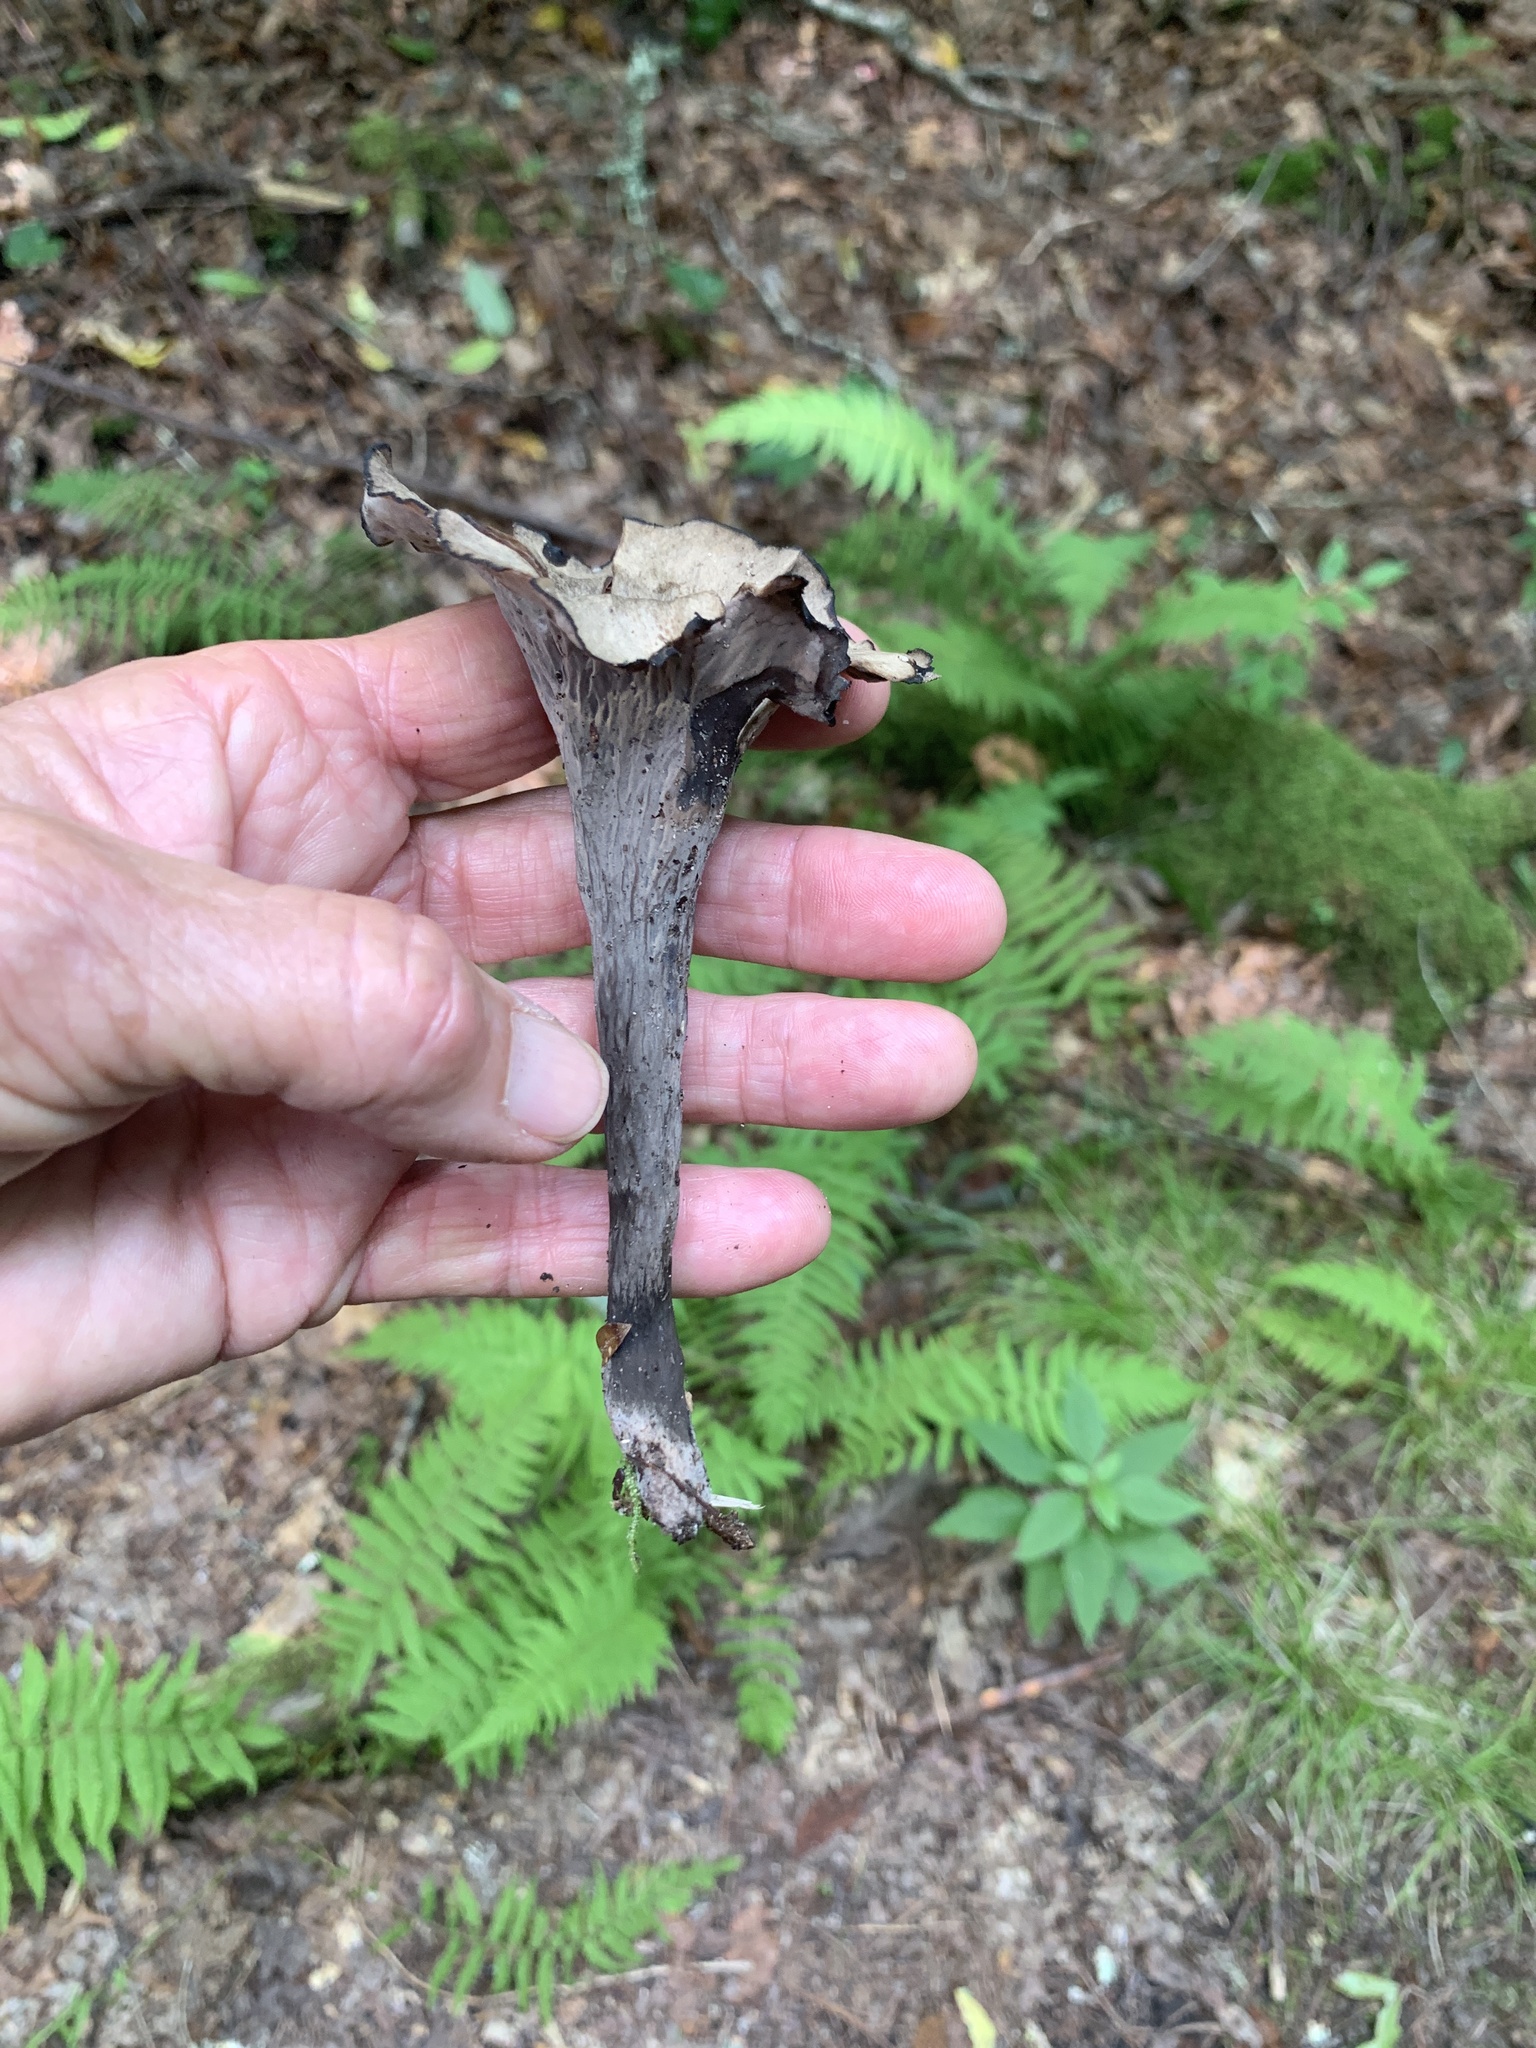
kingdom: Fungi
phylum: Basidiomycota
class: Agaricomycetes
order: Cantharellales
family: Hydnaceae
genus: Craterellus
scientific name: Craterellus cornucopioides
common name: Horn of plenty
